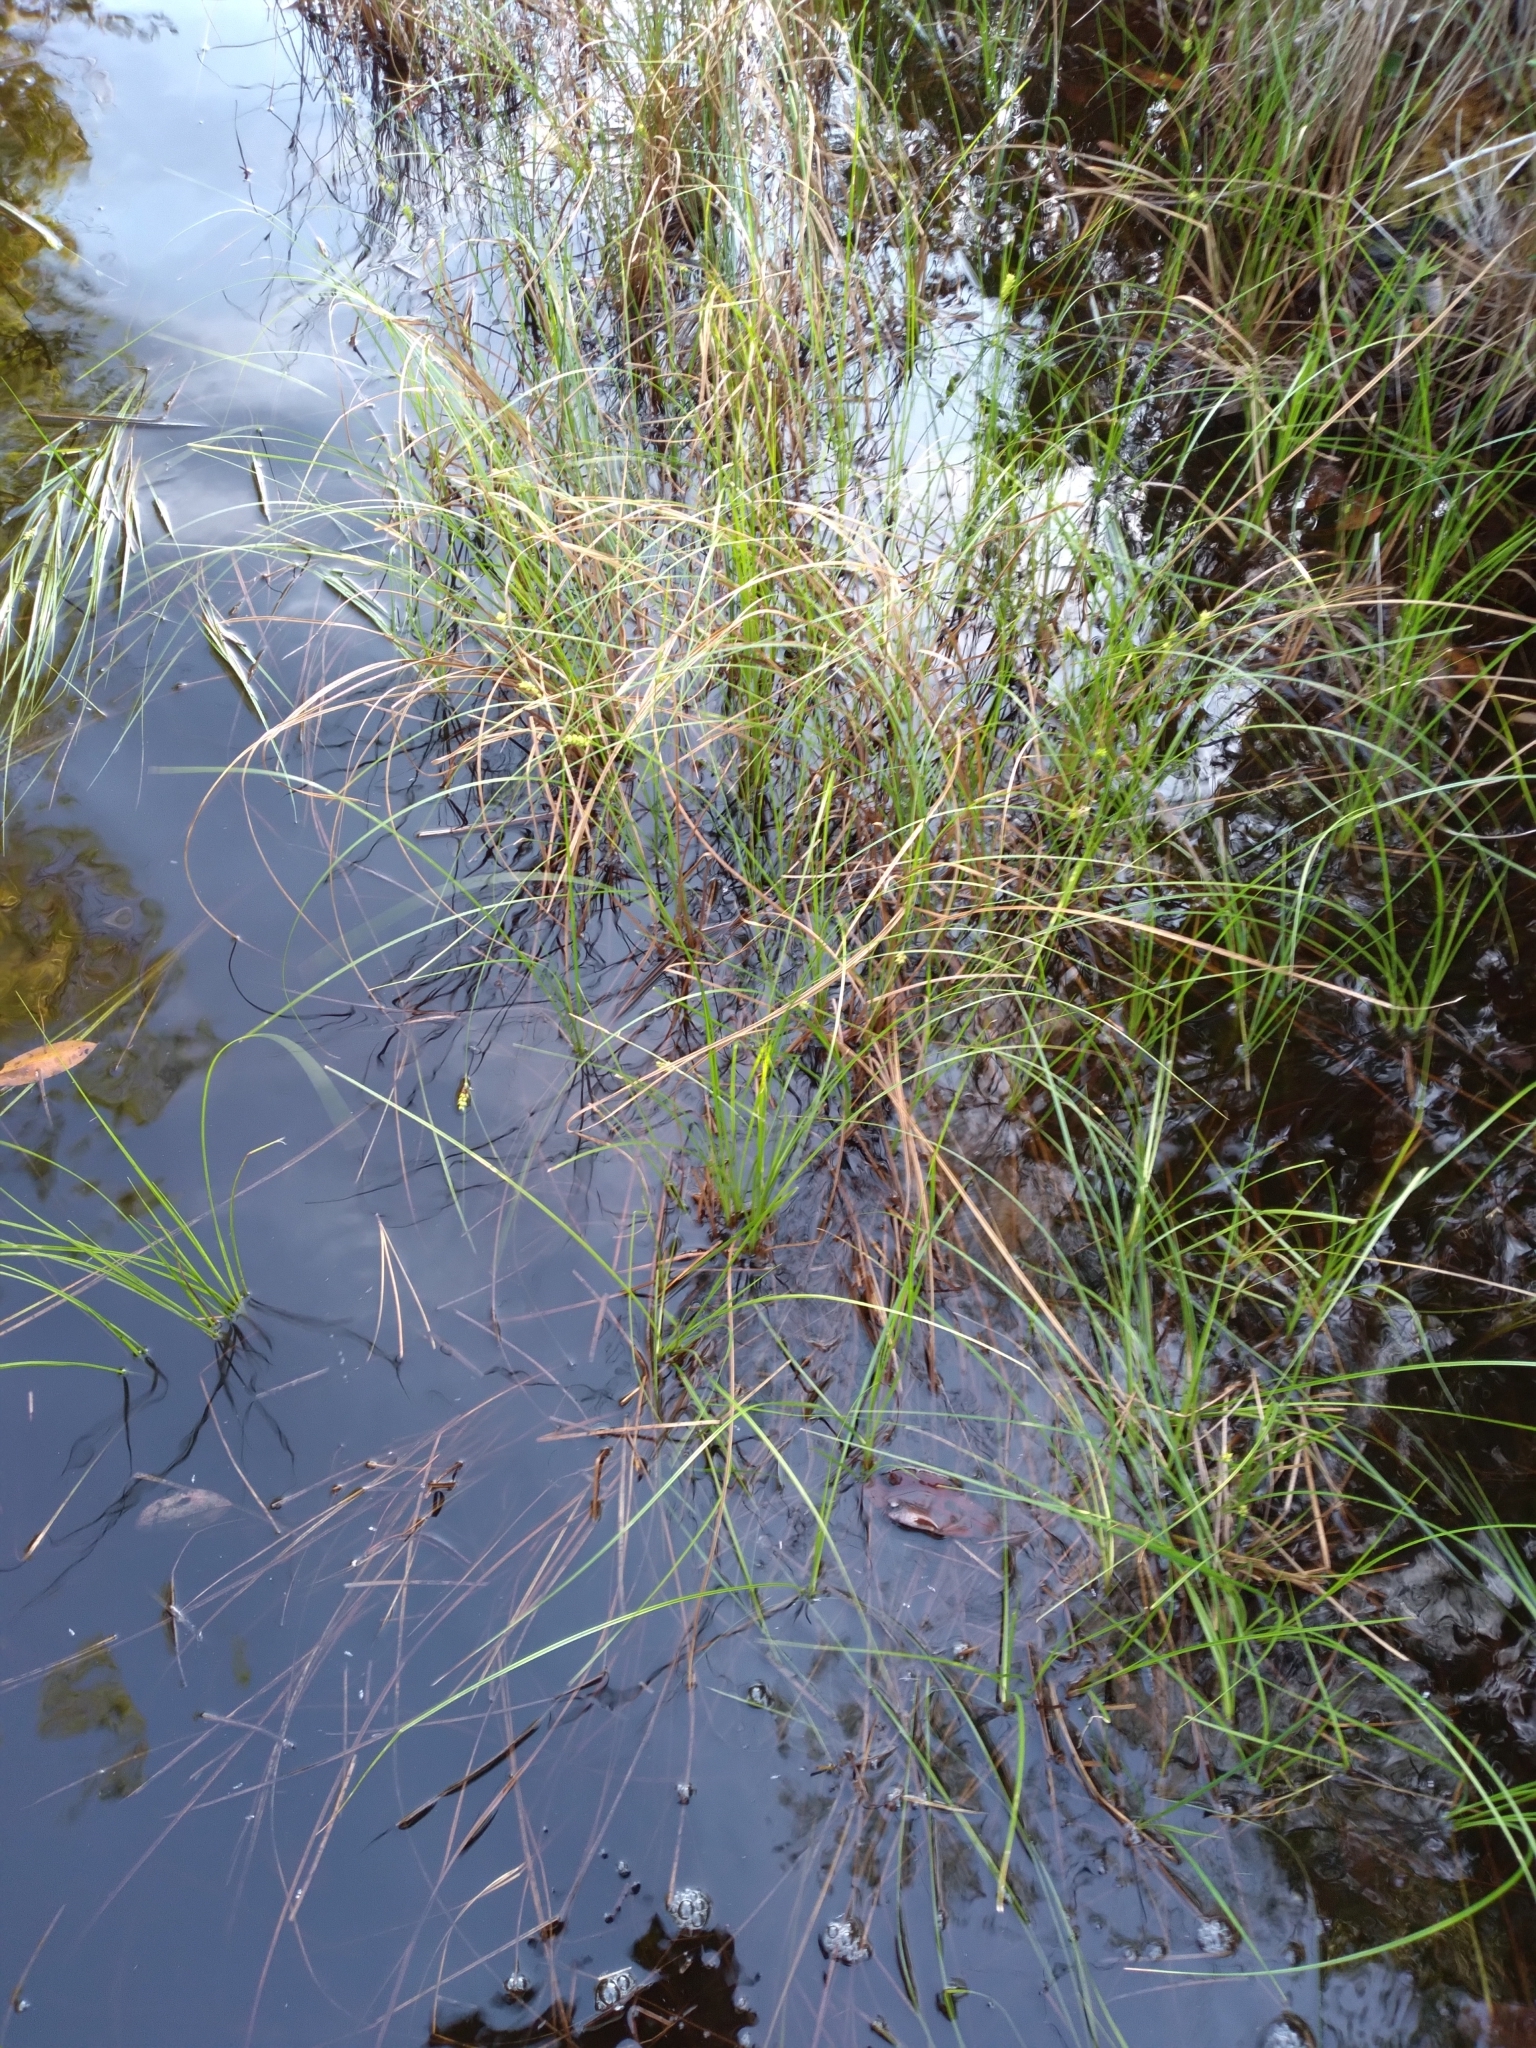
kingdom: Plantae
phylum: Tracheophyta
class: Liliopsida
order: Poales
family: Cyperaceae
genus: Carex
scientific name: Carex striata
